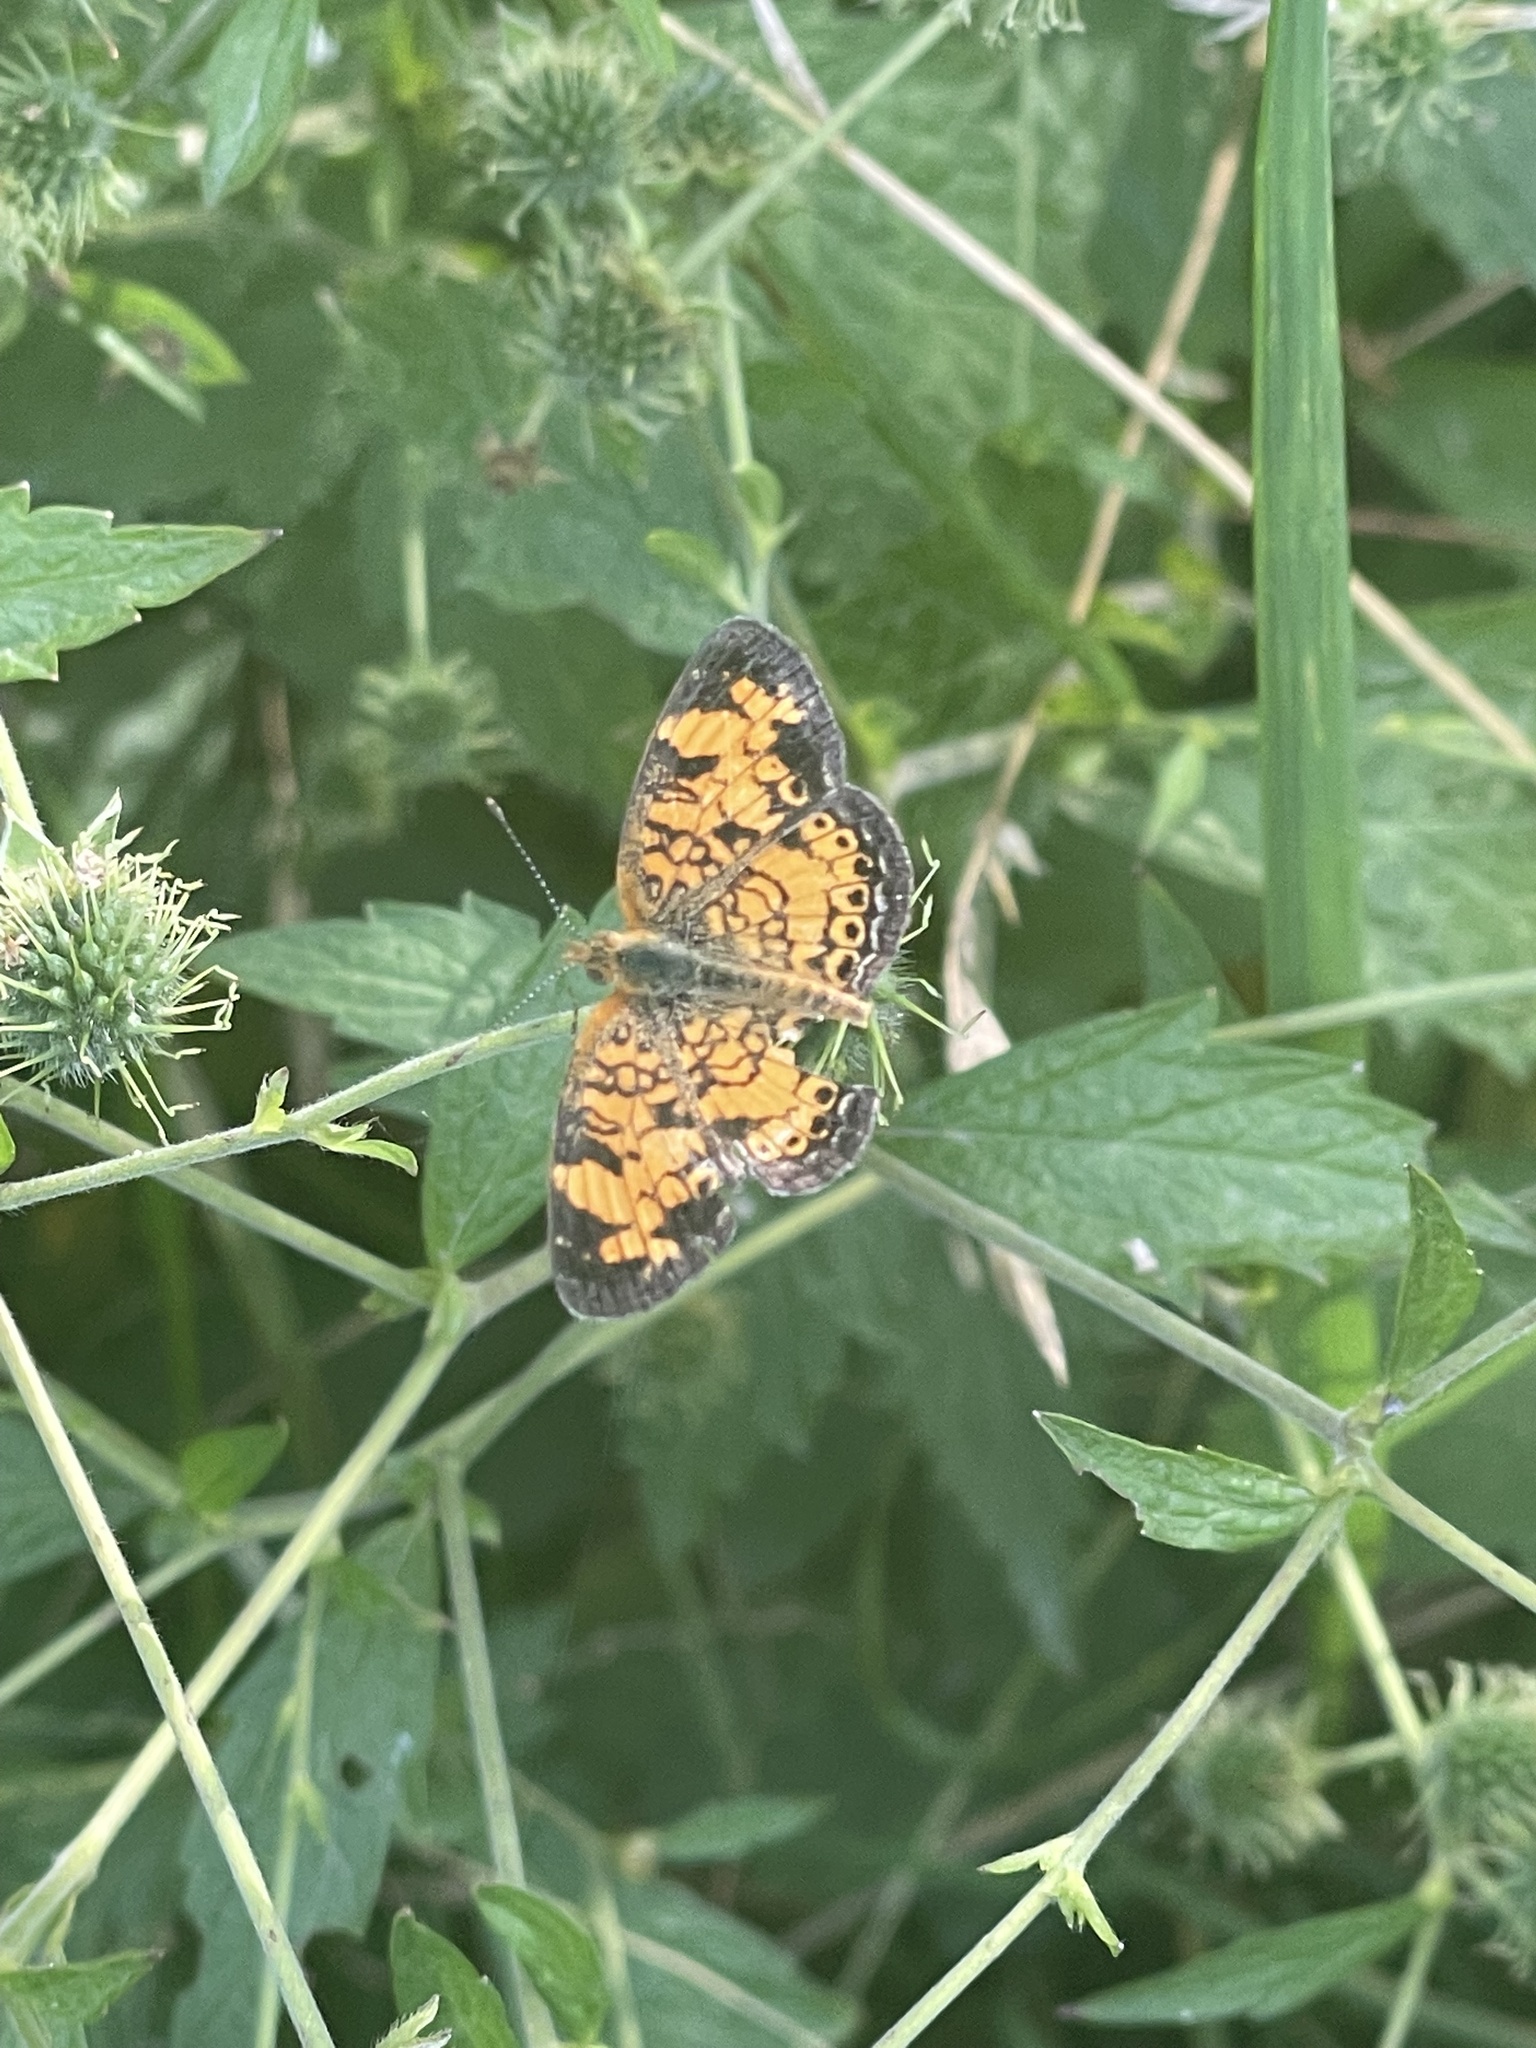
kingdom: Animalia
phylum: Arthropoda
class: Insecta
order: Lepidoptera
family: Nymphalidae
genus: Phyciodes
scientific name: Phyciodes tharos
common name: Pearl crescent
